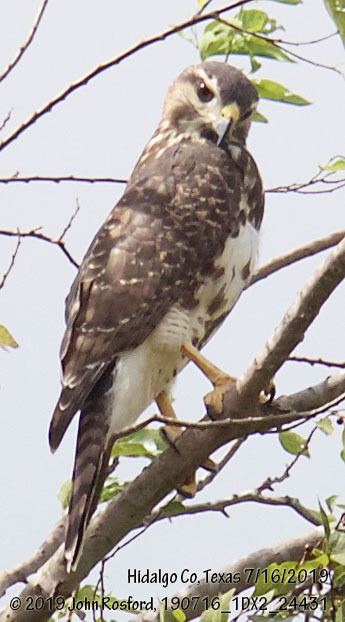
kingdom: Animalia
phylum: Chordata
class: Aves
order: Accipitriformes
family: Accipitridae
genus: Buteo
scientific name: Buteo nitidus
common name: Grey-lined hawk
